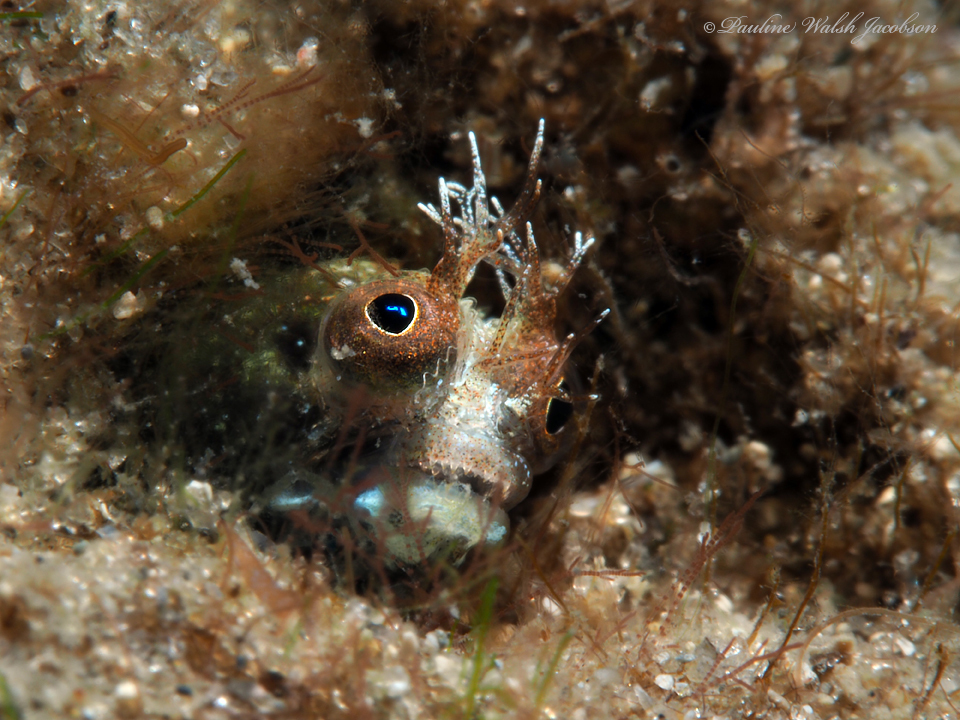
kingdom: Animalia
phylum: Chordata
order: Perciformes
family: Chaenopsidae
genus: Acanthemblemaria
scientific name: Acanthemblemaria aspera
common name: Roughhead blenny
